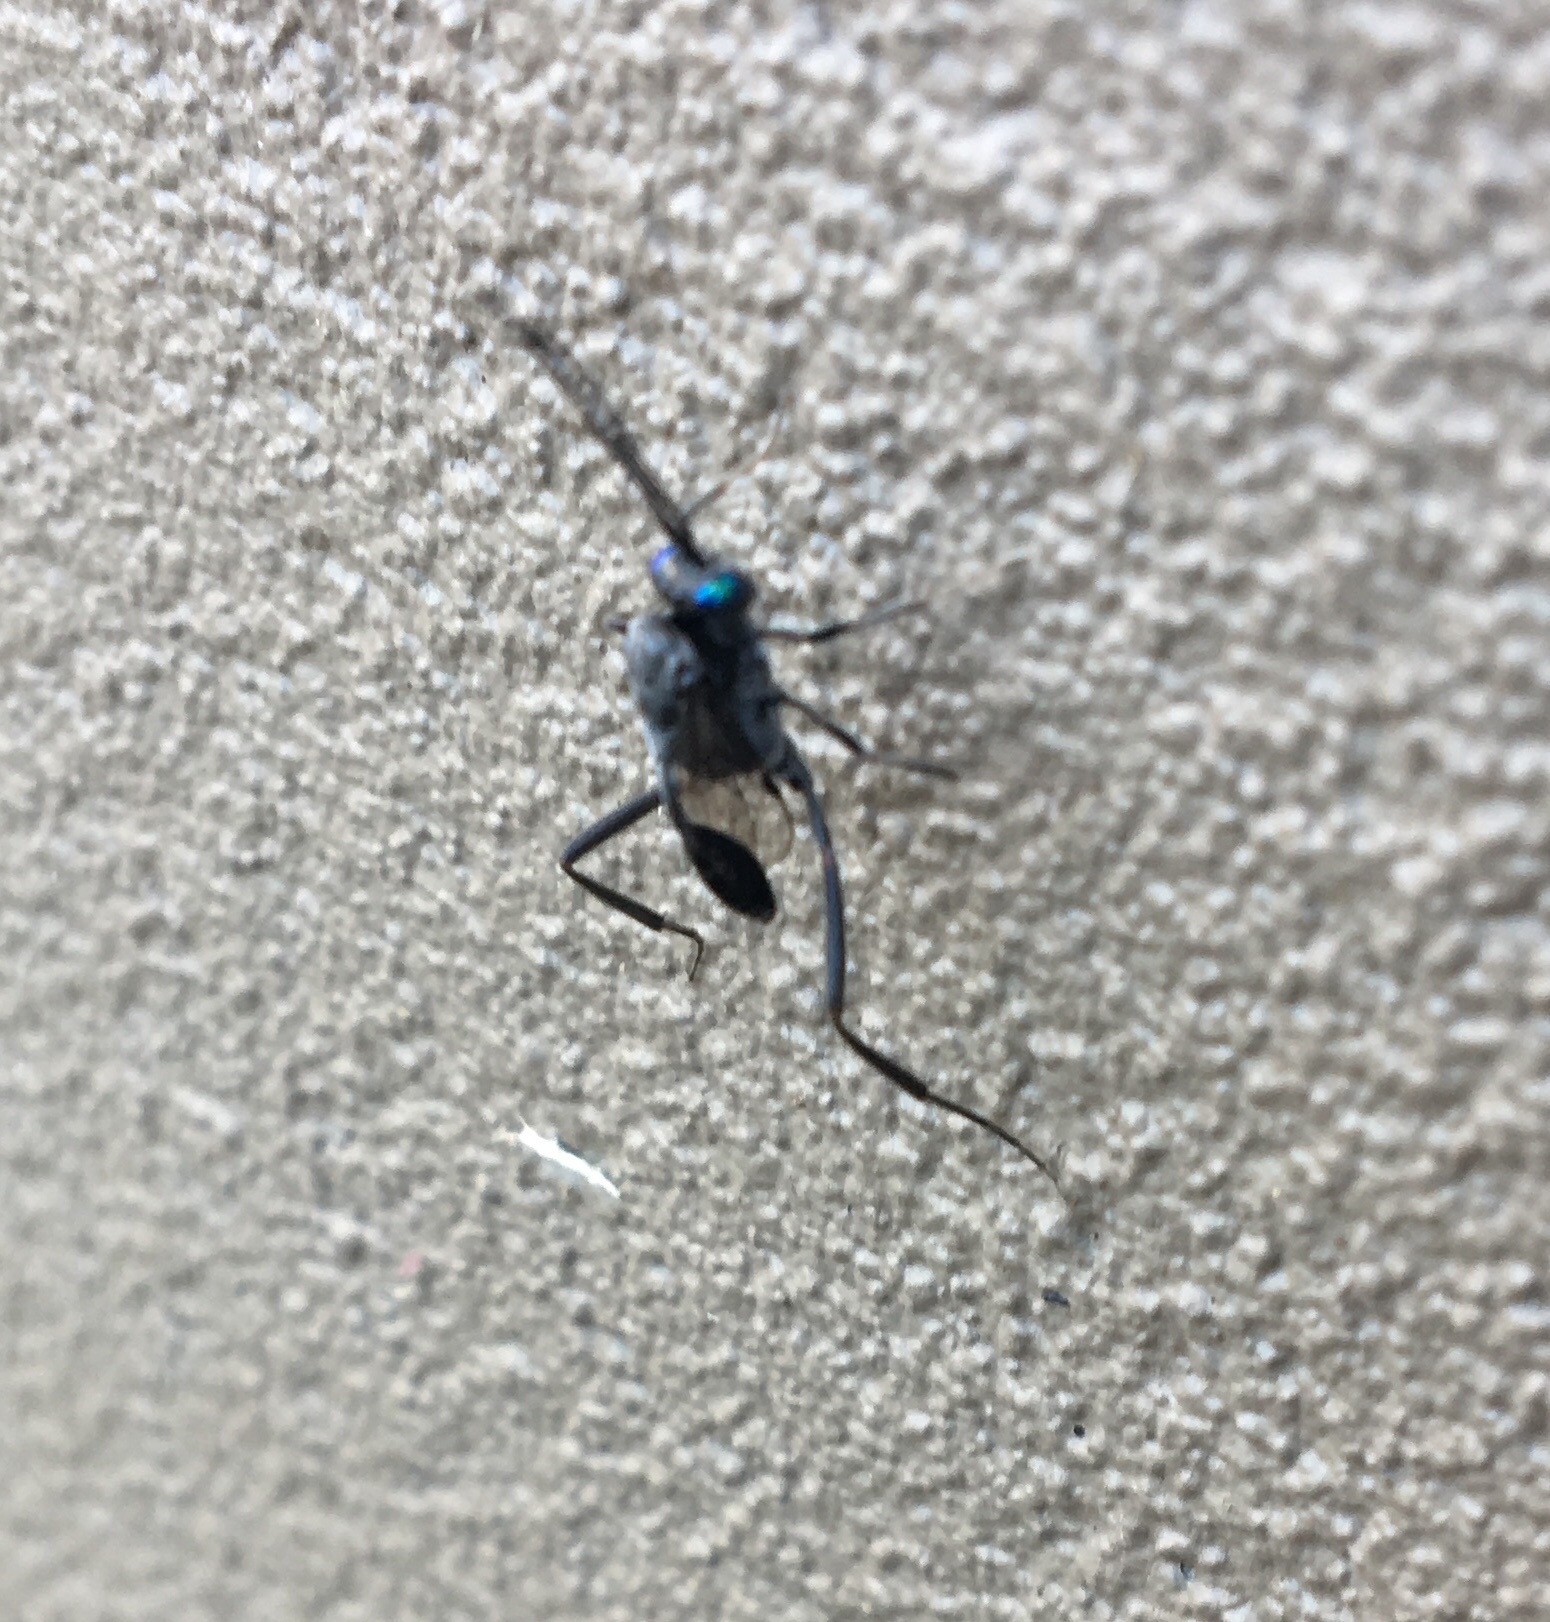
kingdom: Animalia
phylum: Arthropoda
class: Insecta
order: Hymenoptera
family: Evaniidae
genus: Evania
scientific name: Evania appendigaster
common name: Ensign wasp
